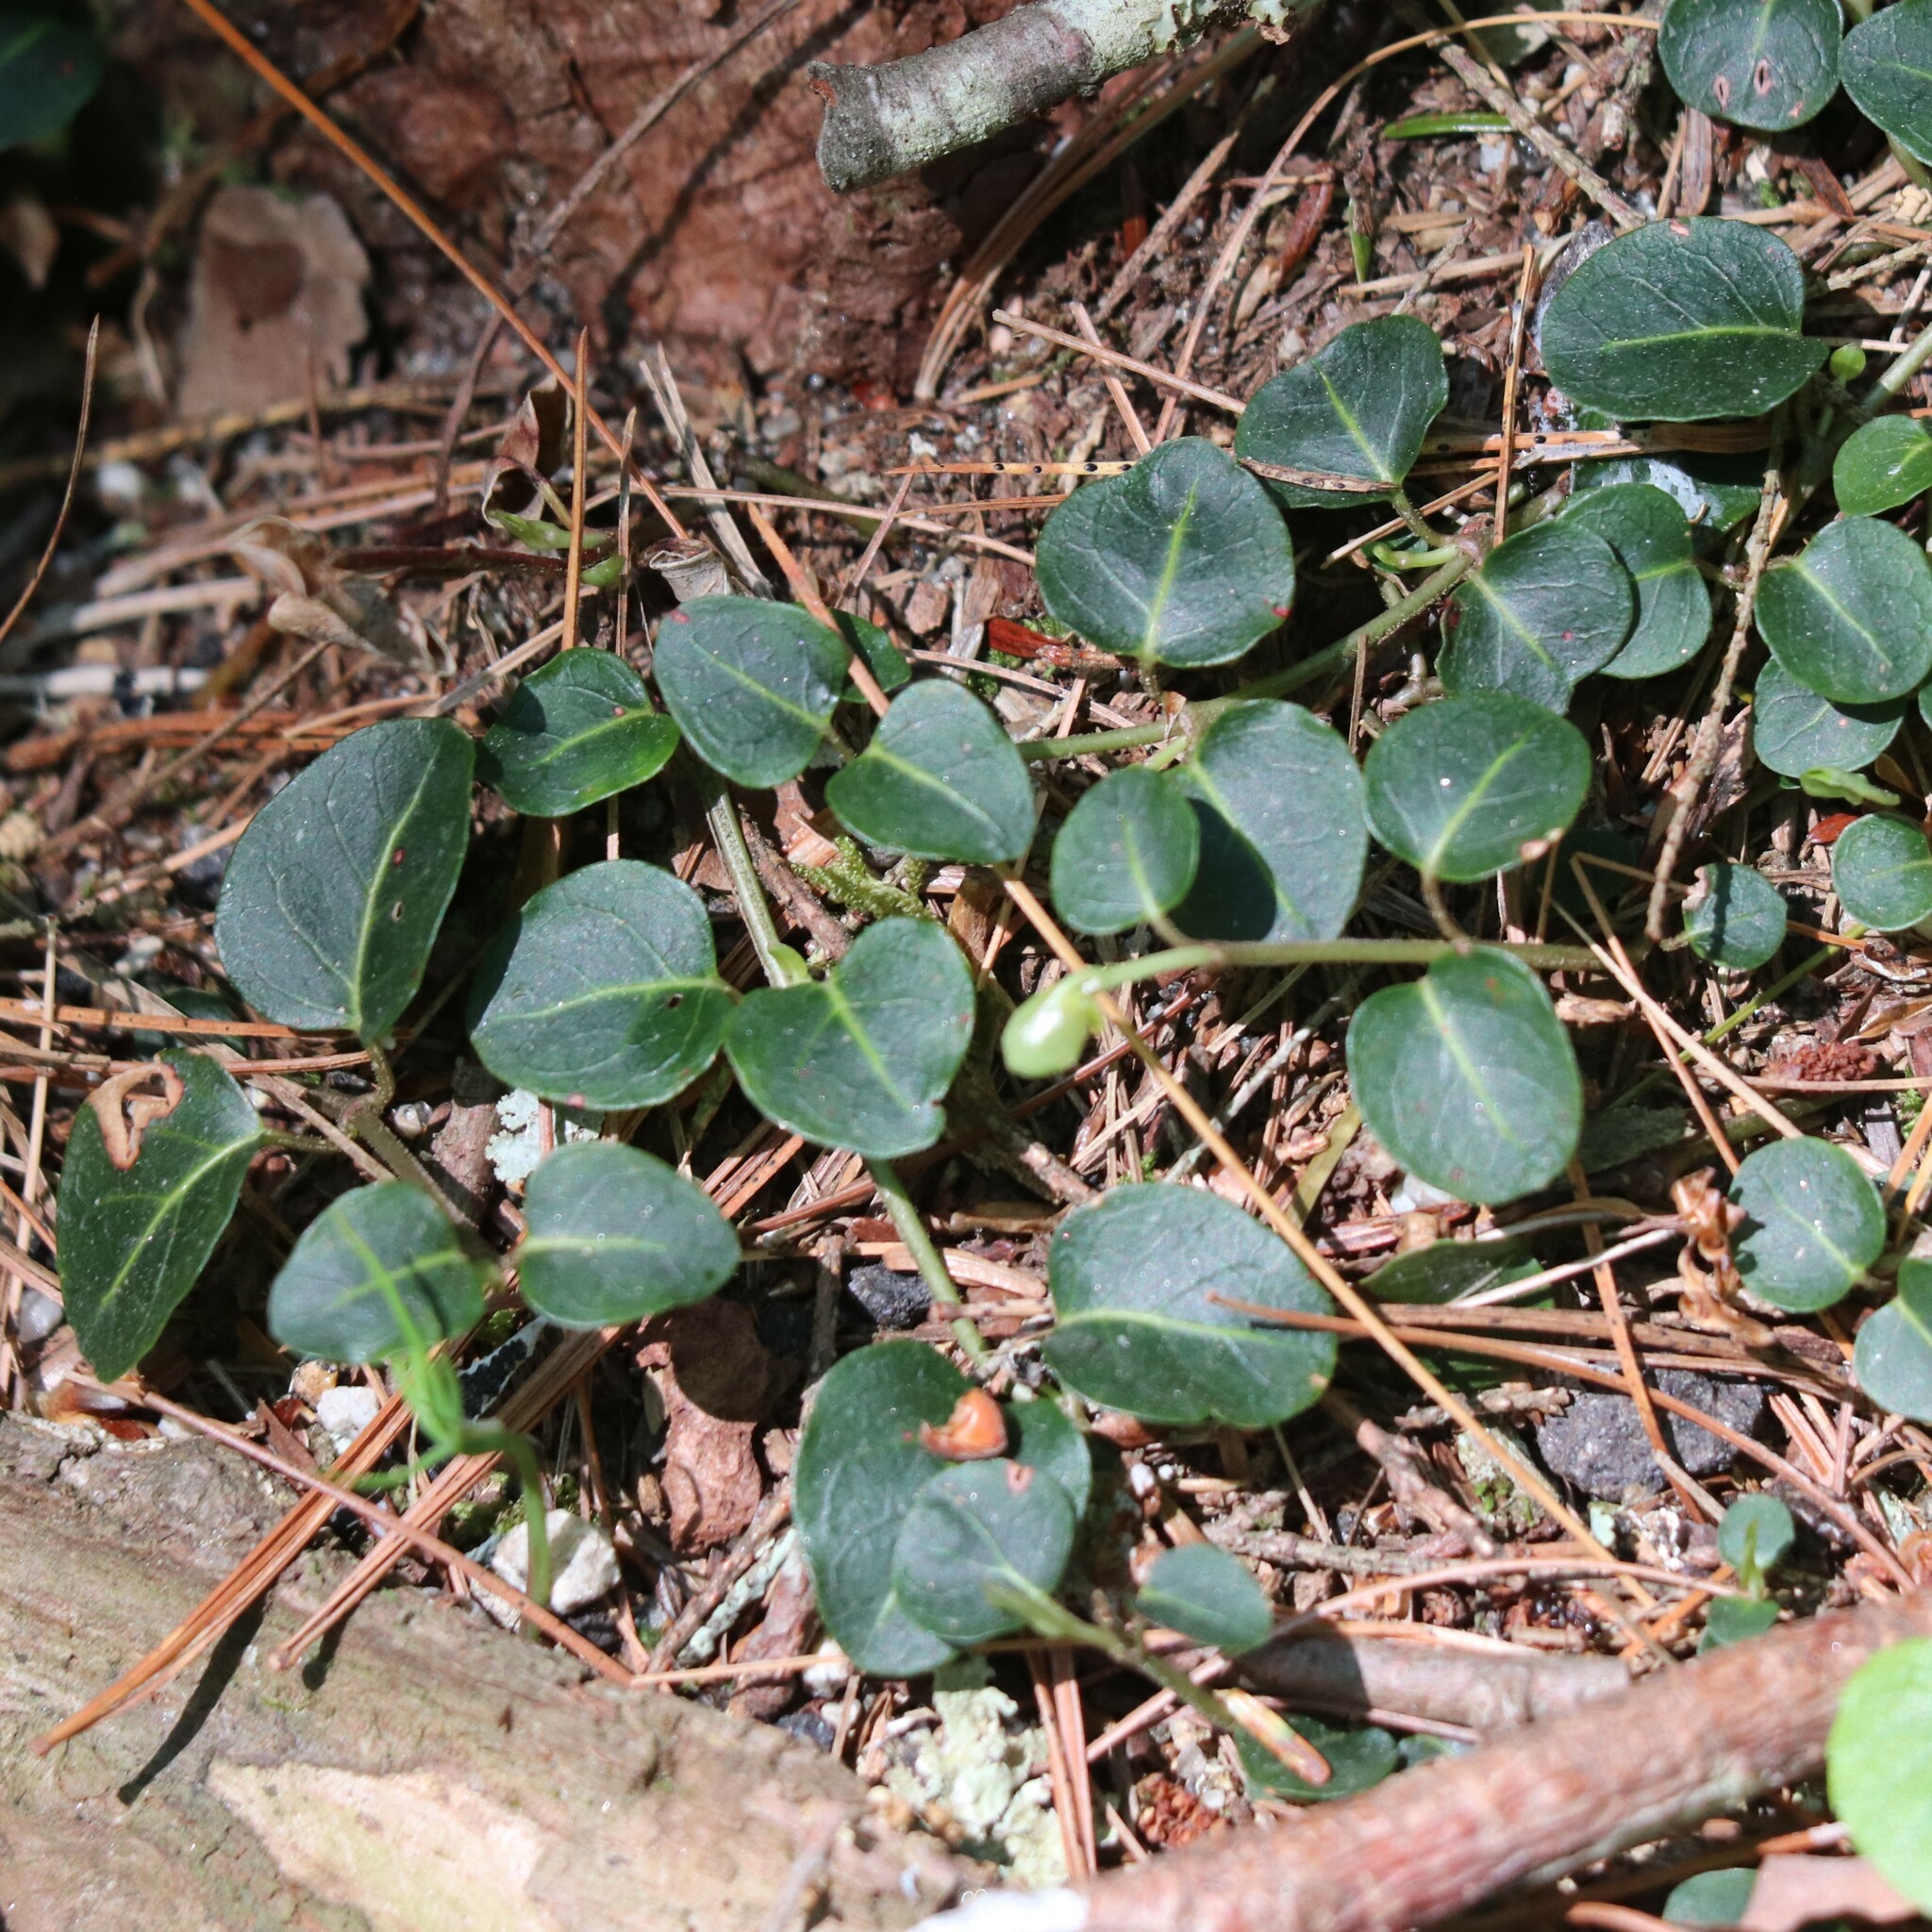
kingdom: Plantae
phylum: Tracheophyta
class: Magnoliopsida
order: Gentianales
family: Rubiaceae
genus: Mitchella
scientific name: Mitchella repens
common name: Partridge-berry
